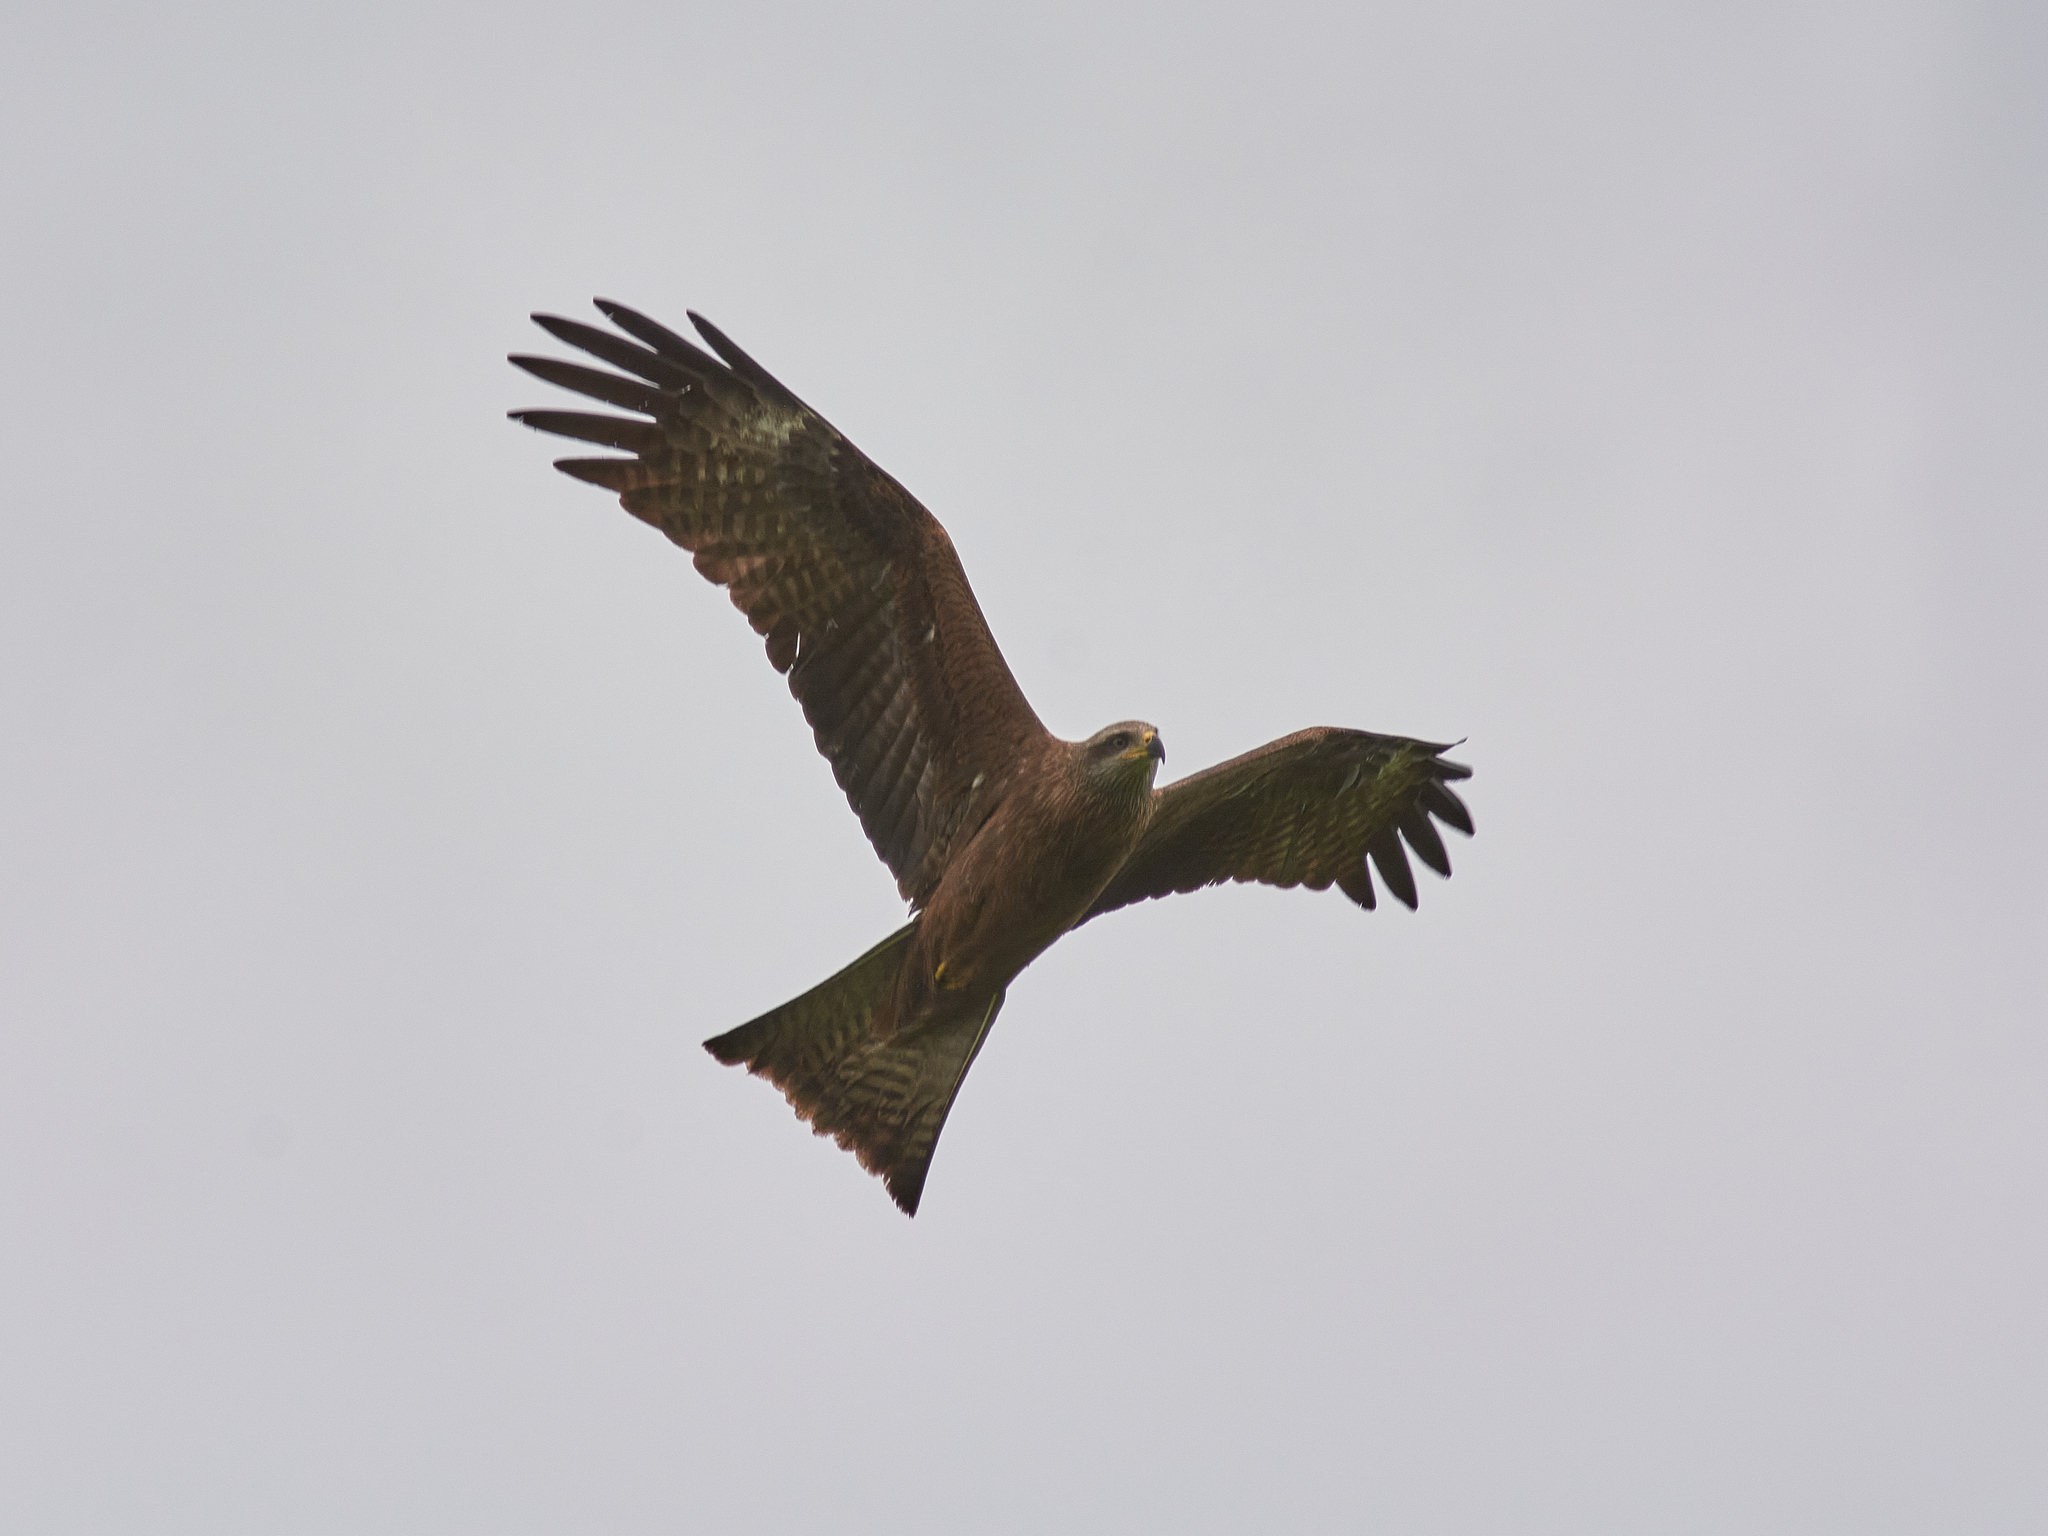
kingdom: Animalia
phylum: Chordata
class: Aves
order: Accipitriformes
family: Accipitridae
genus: Milvus
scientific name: Milvus migrans
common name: Black kite
